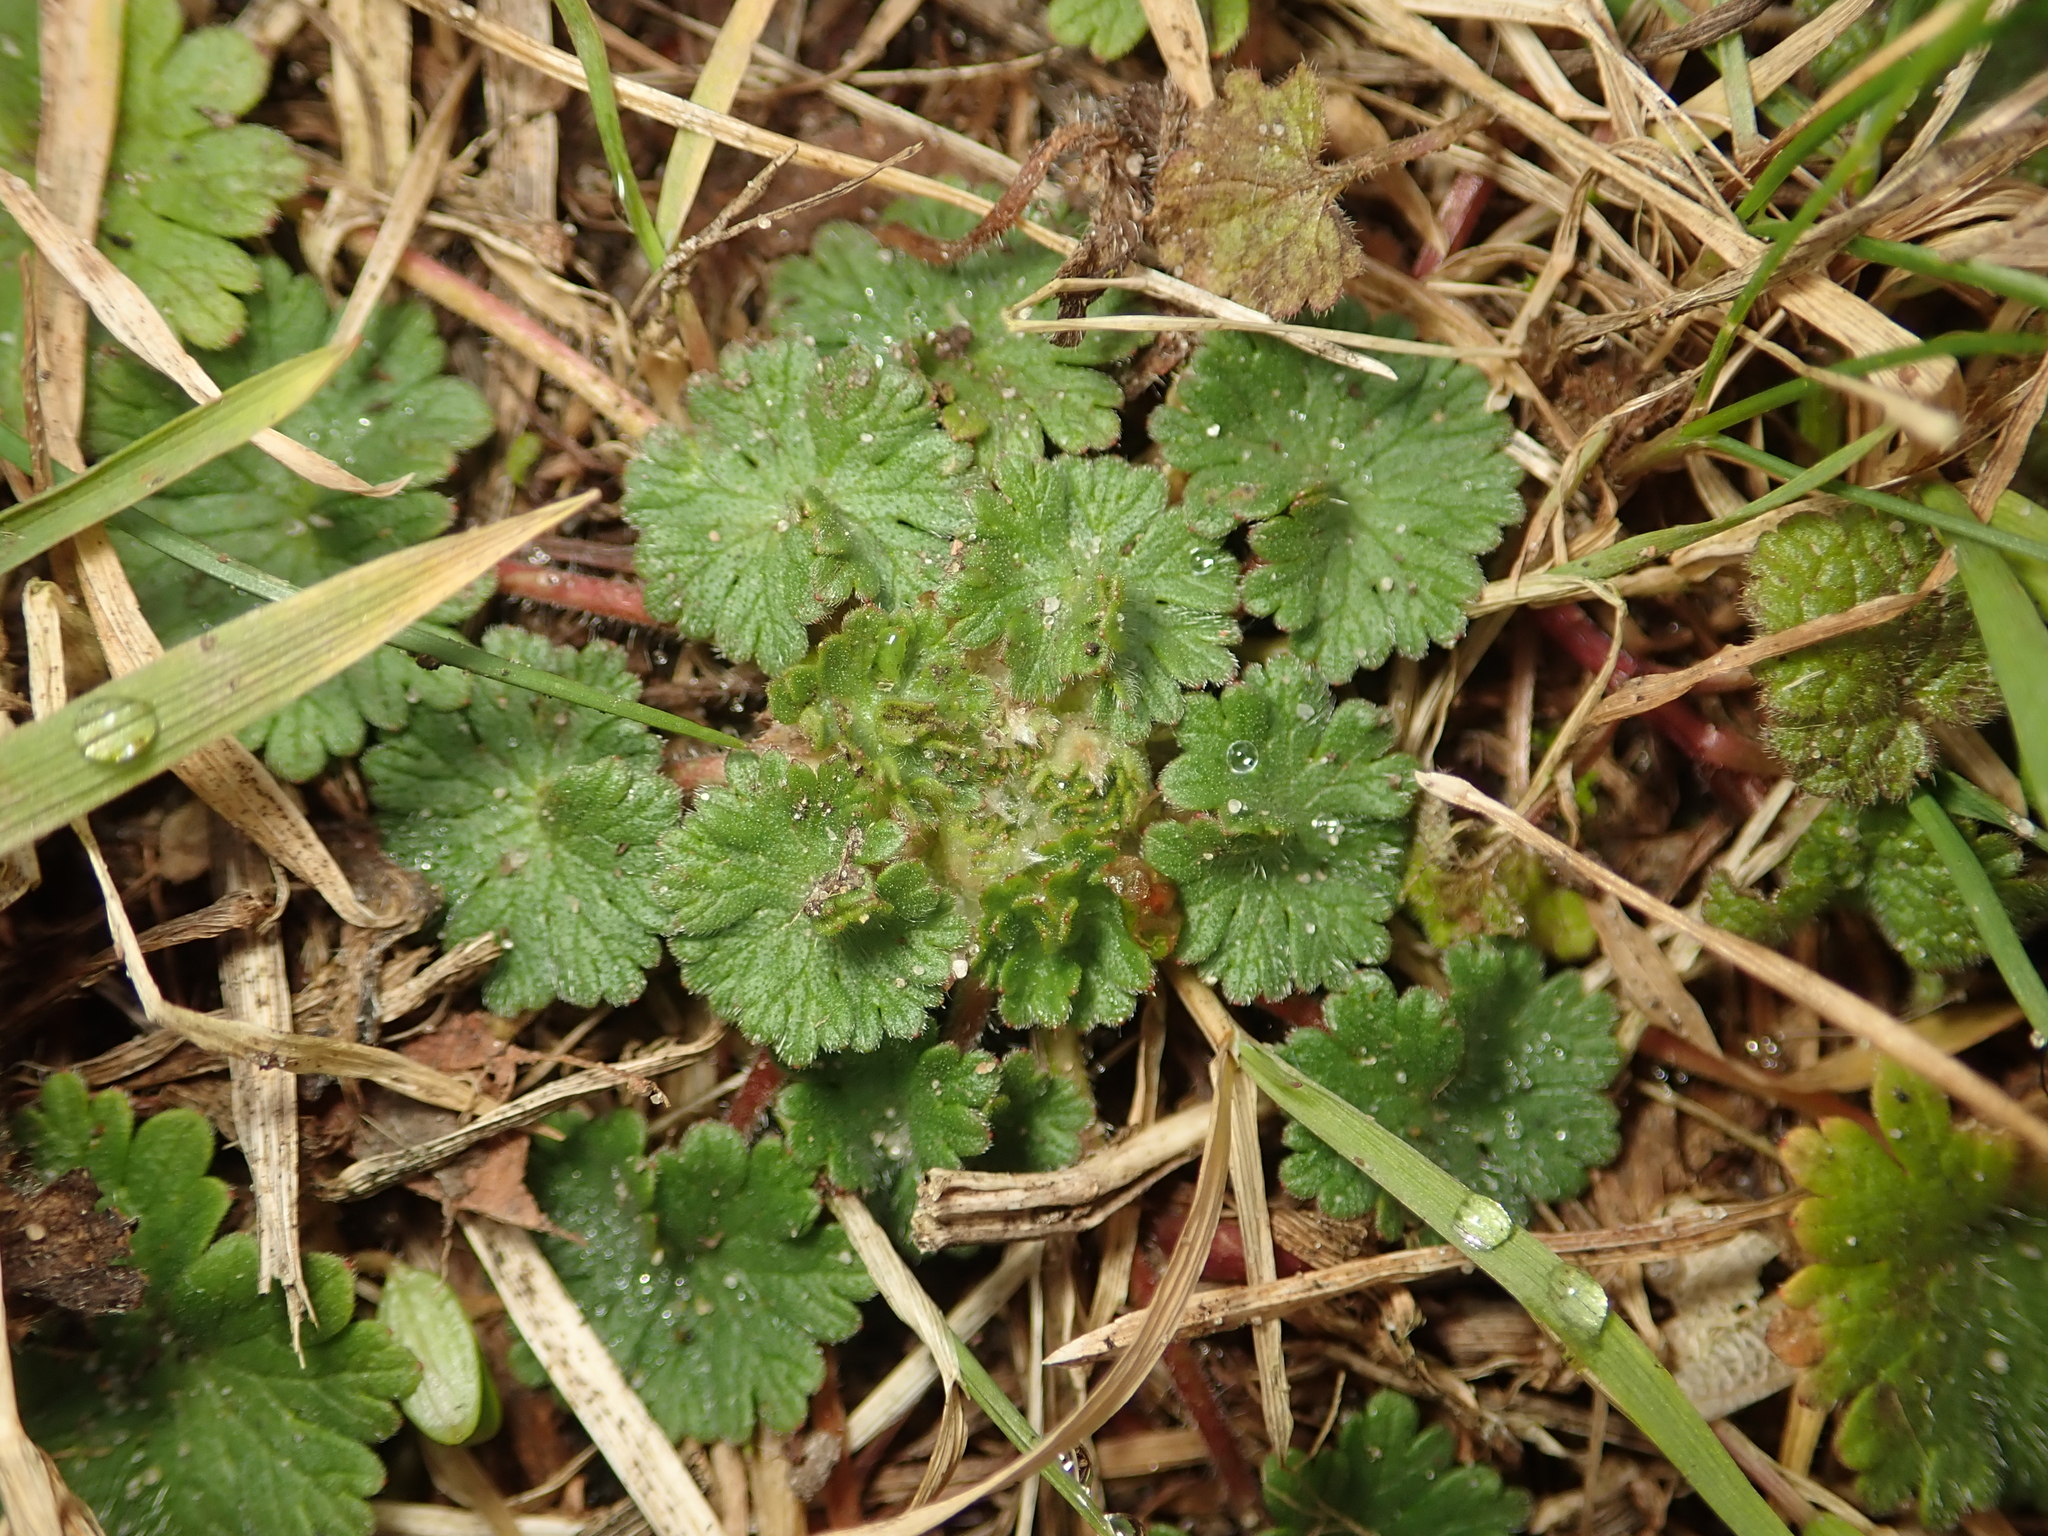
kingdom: Plantae
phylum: Tracheophyta
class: Magnoliopsida
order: Geraniales
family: Geraniaceae
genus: Geranium
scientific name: Geranium molle
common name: Dove's-foot crane's-bill
